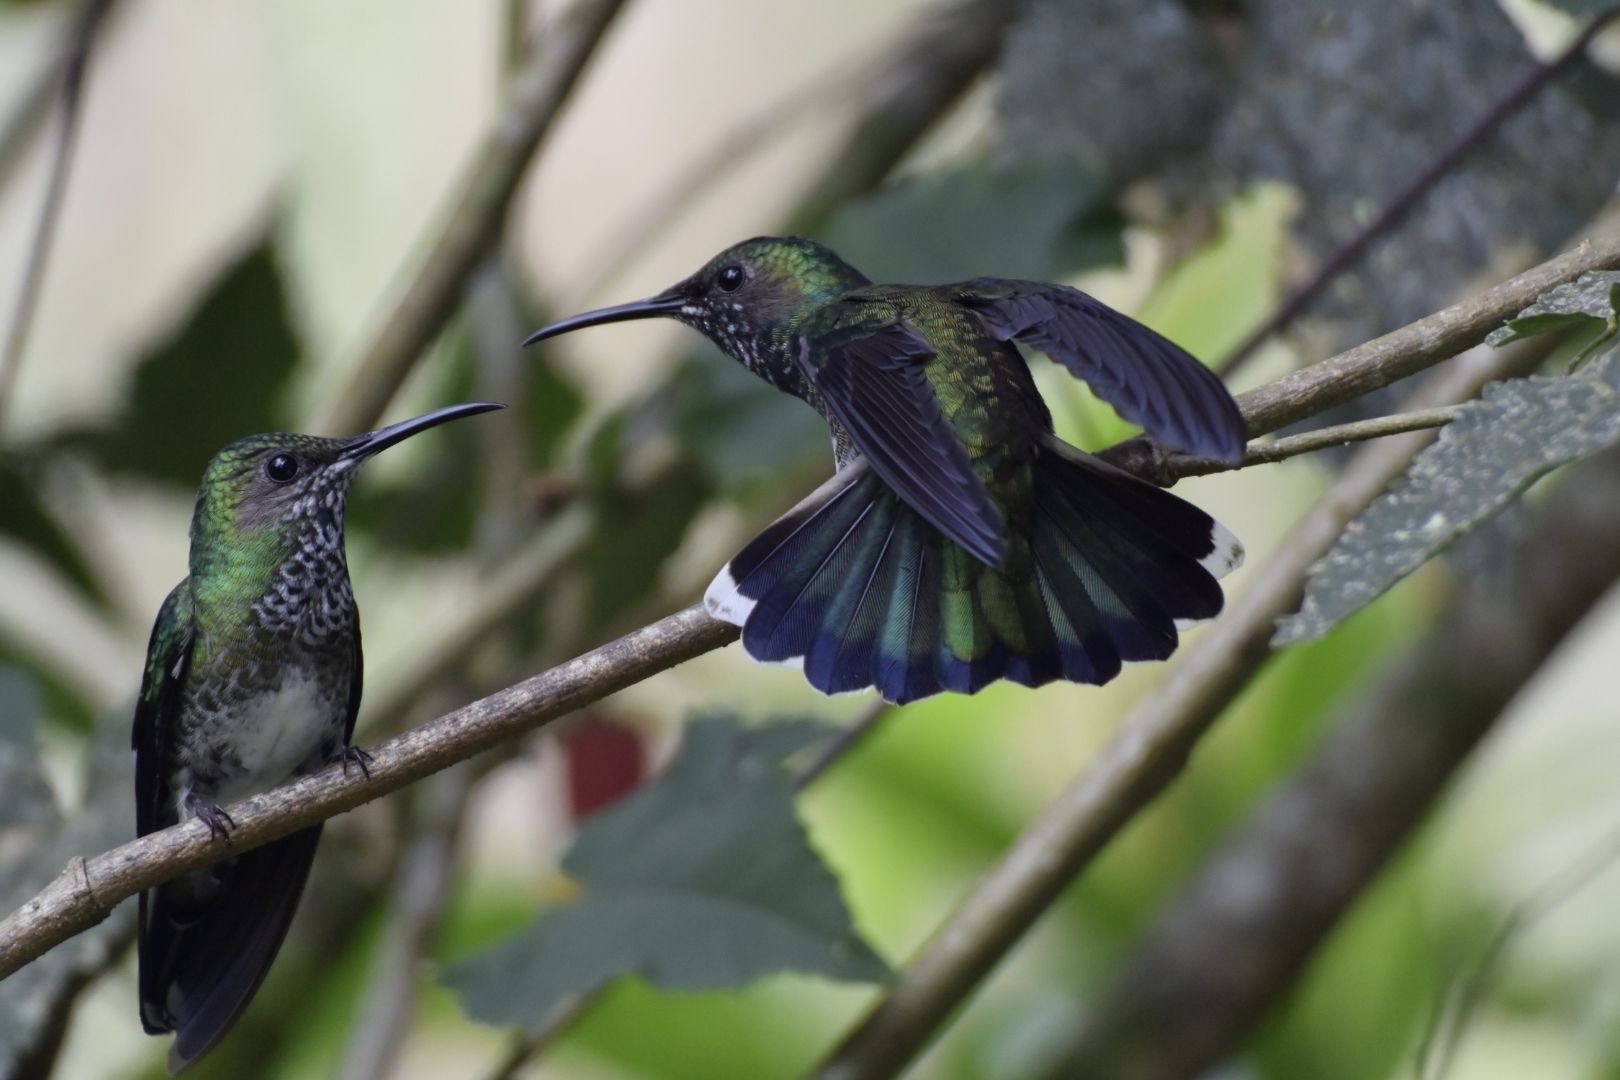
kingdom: Animalia
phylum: Chordata
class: Aves
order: Apodiformes
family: Trochilidae
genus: Florisuga
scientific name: Florisuga mellivora
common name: White-necked jacobin
